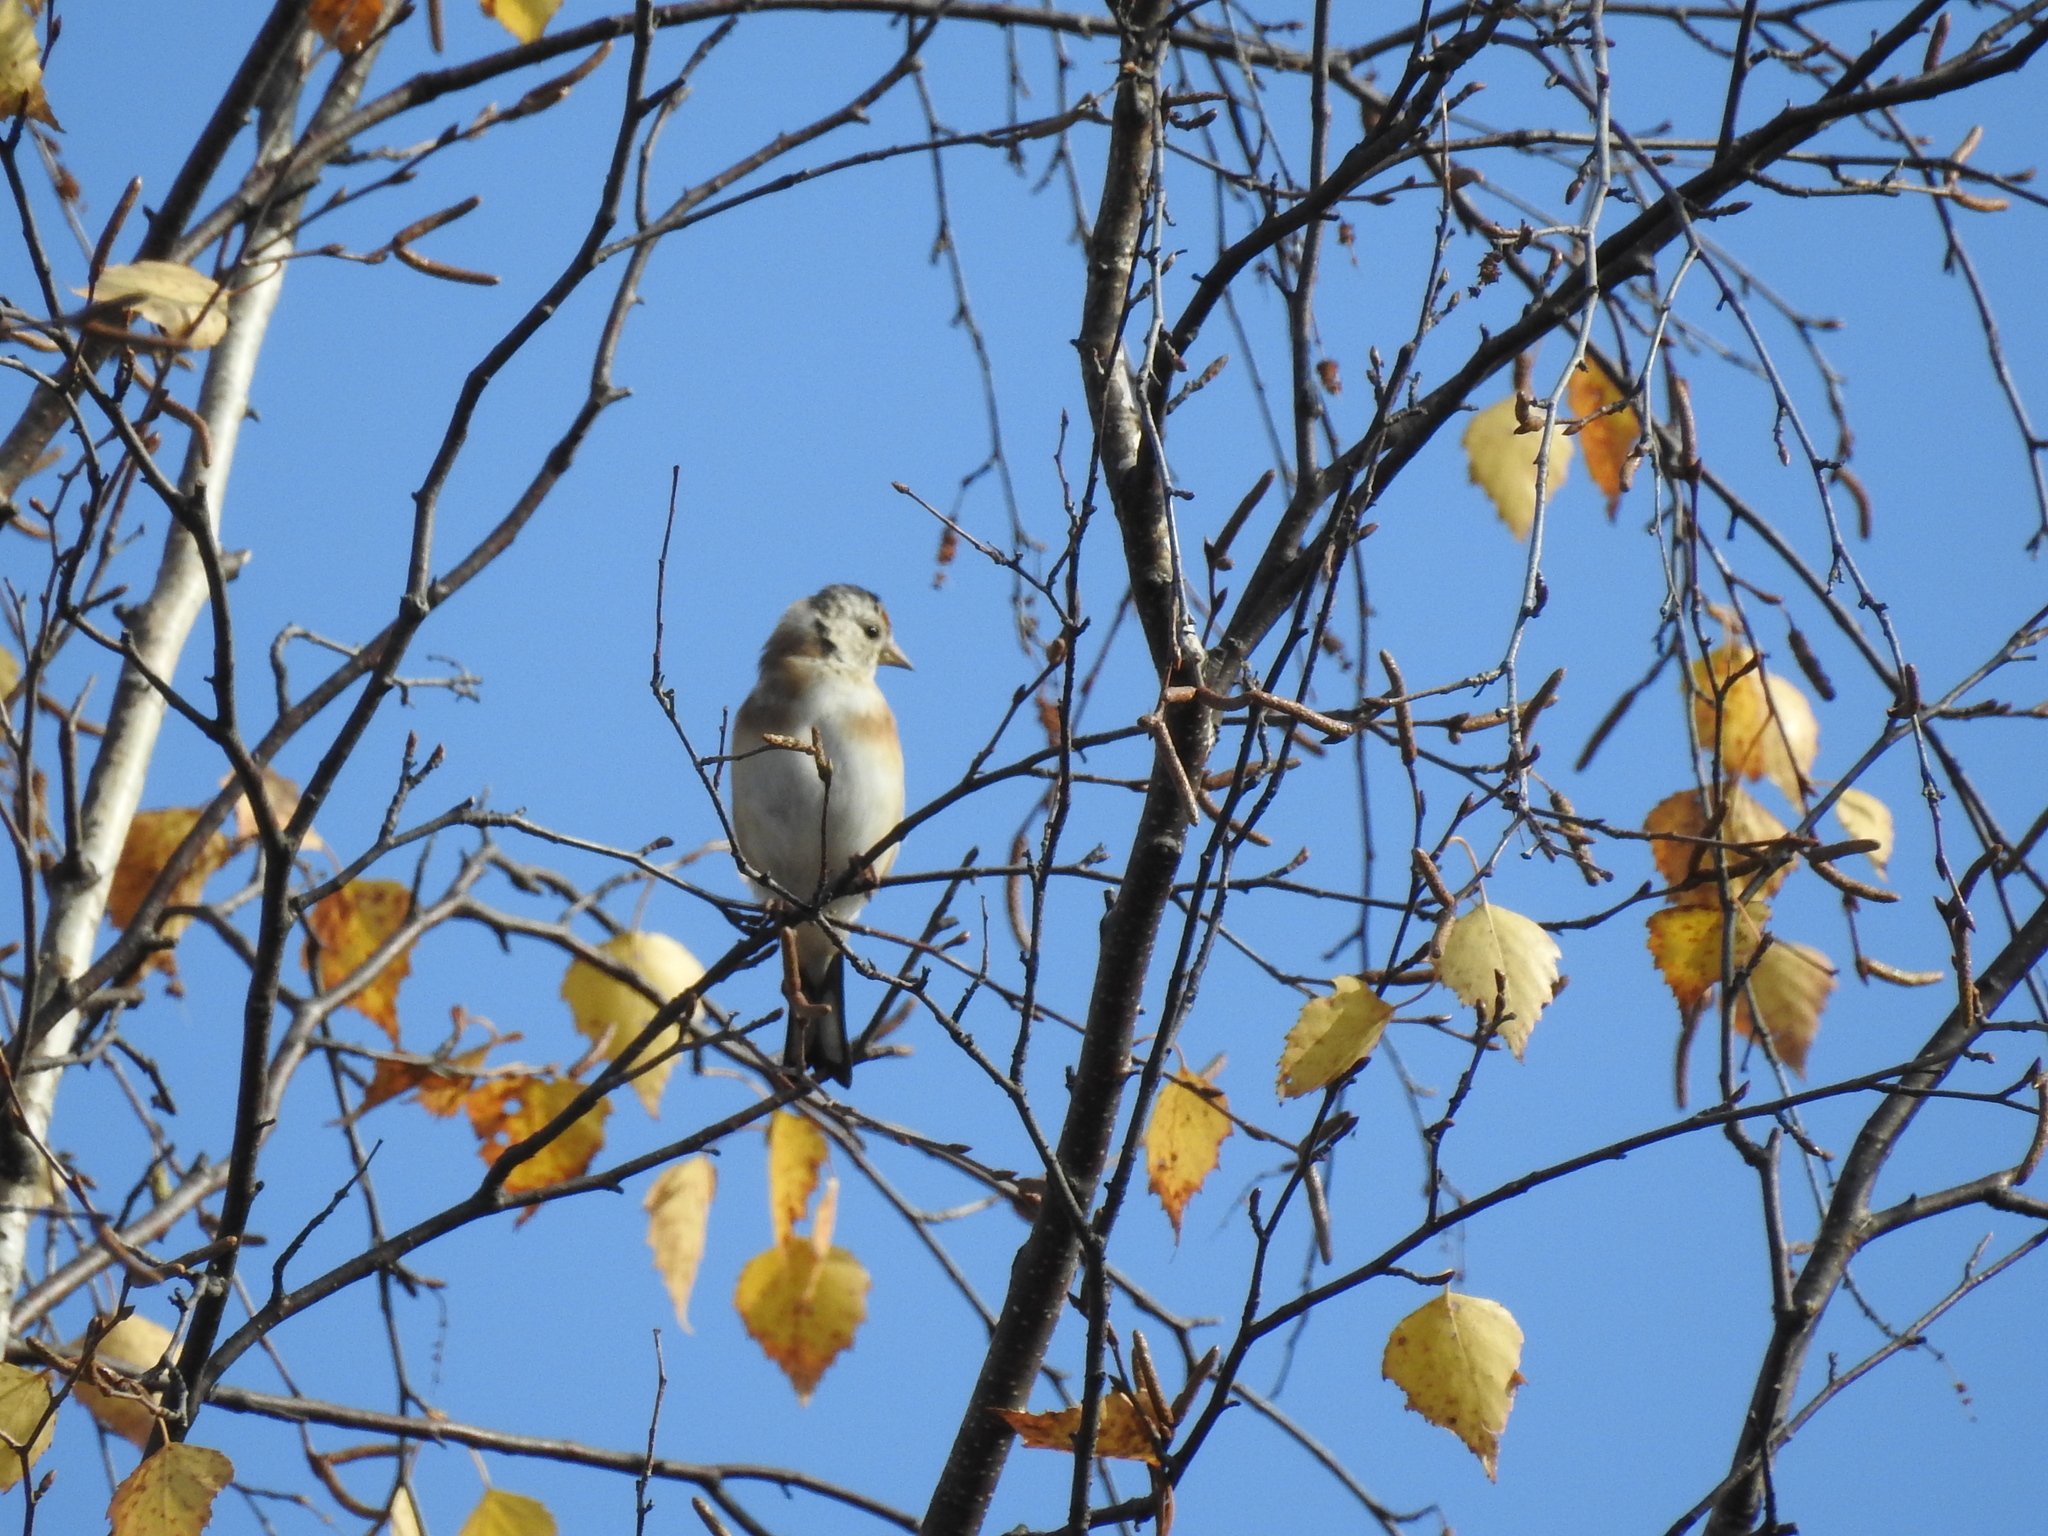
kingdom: Animalia
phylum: Chordata
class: Aves
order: Passeriformes
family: Fringillidae
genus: Carduelis
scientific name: Carduelis carduelis
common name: European goldfinch
